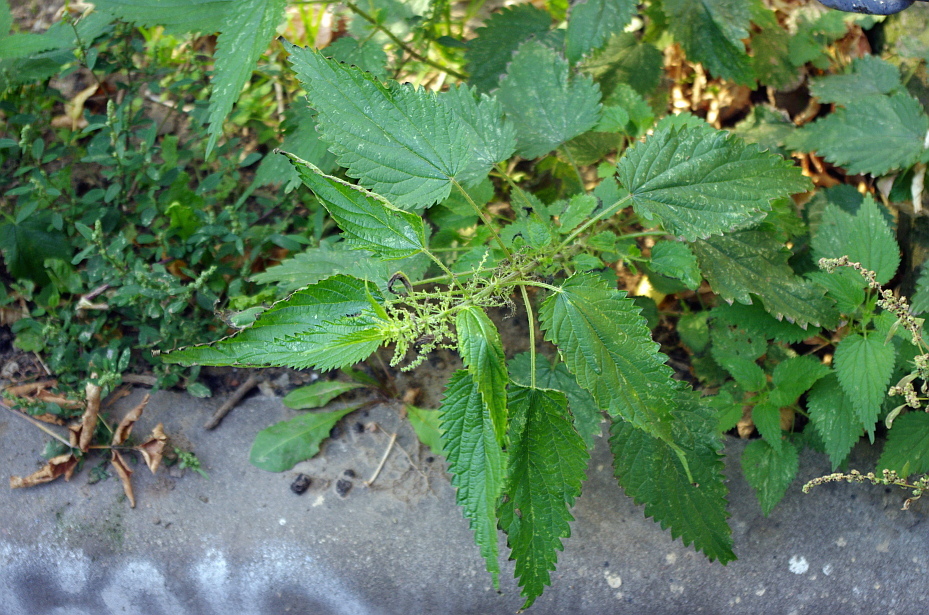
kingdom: Plantae
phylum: Tracheophyta
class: Magnoliopsida
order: Rosales
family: Urticaceae
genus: Urtica
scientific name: Urtica dioica
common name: Common nettle
